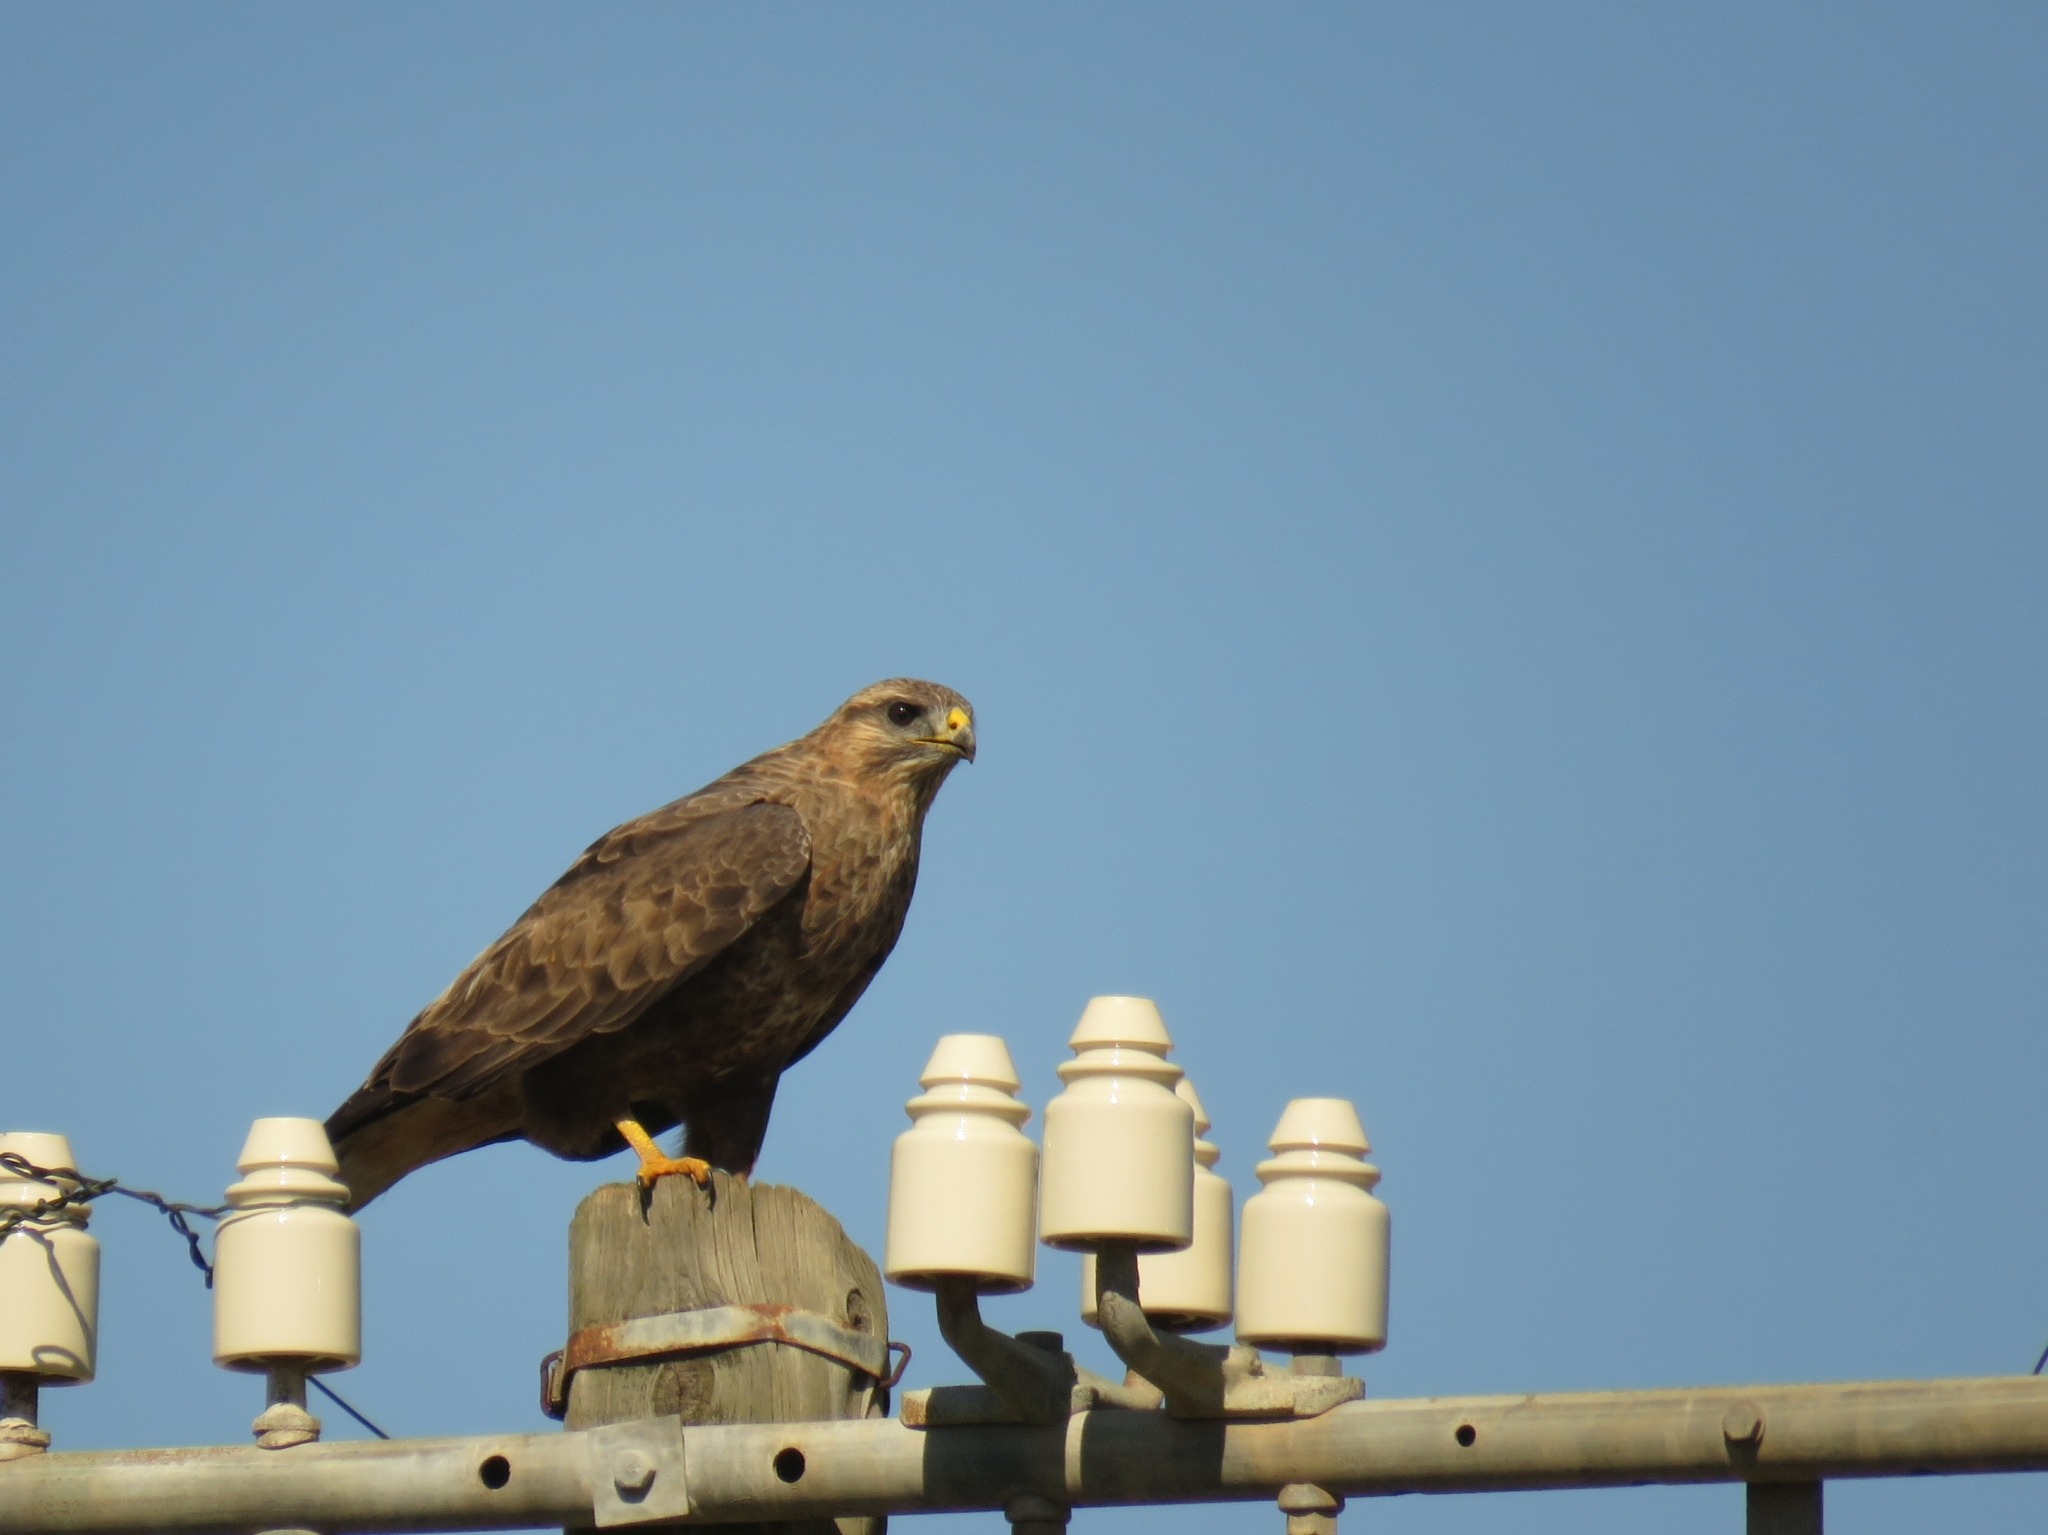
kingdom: Animalia
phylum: Chordata
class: Aves
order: Accipitriformes
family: Accipitridae
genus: Buteo
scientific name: Buteo buteo
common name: Common buzzard
